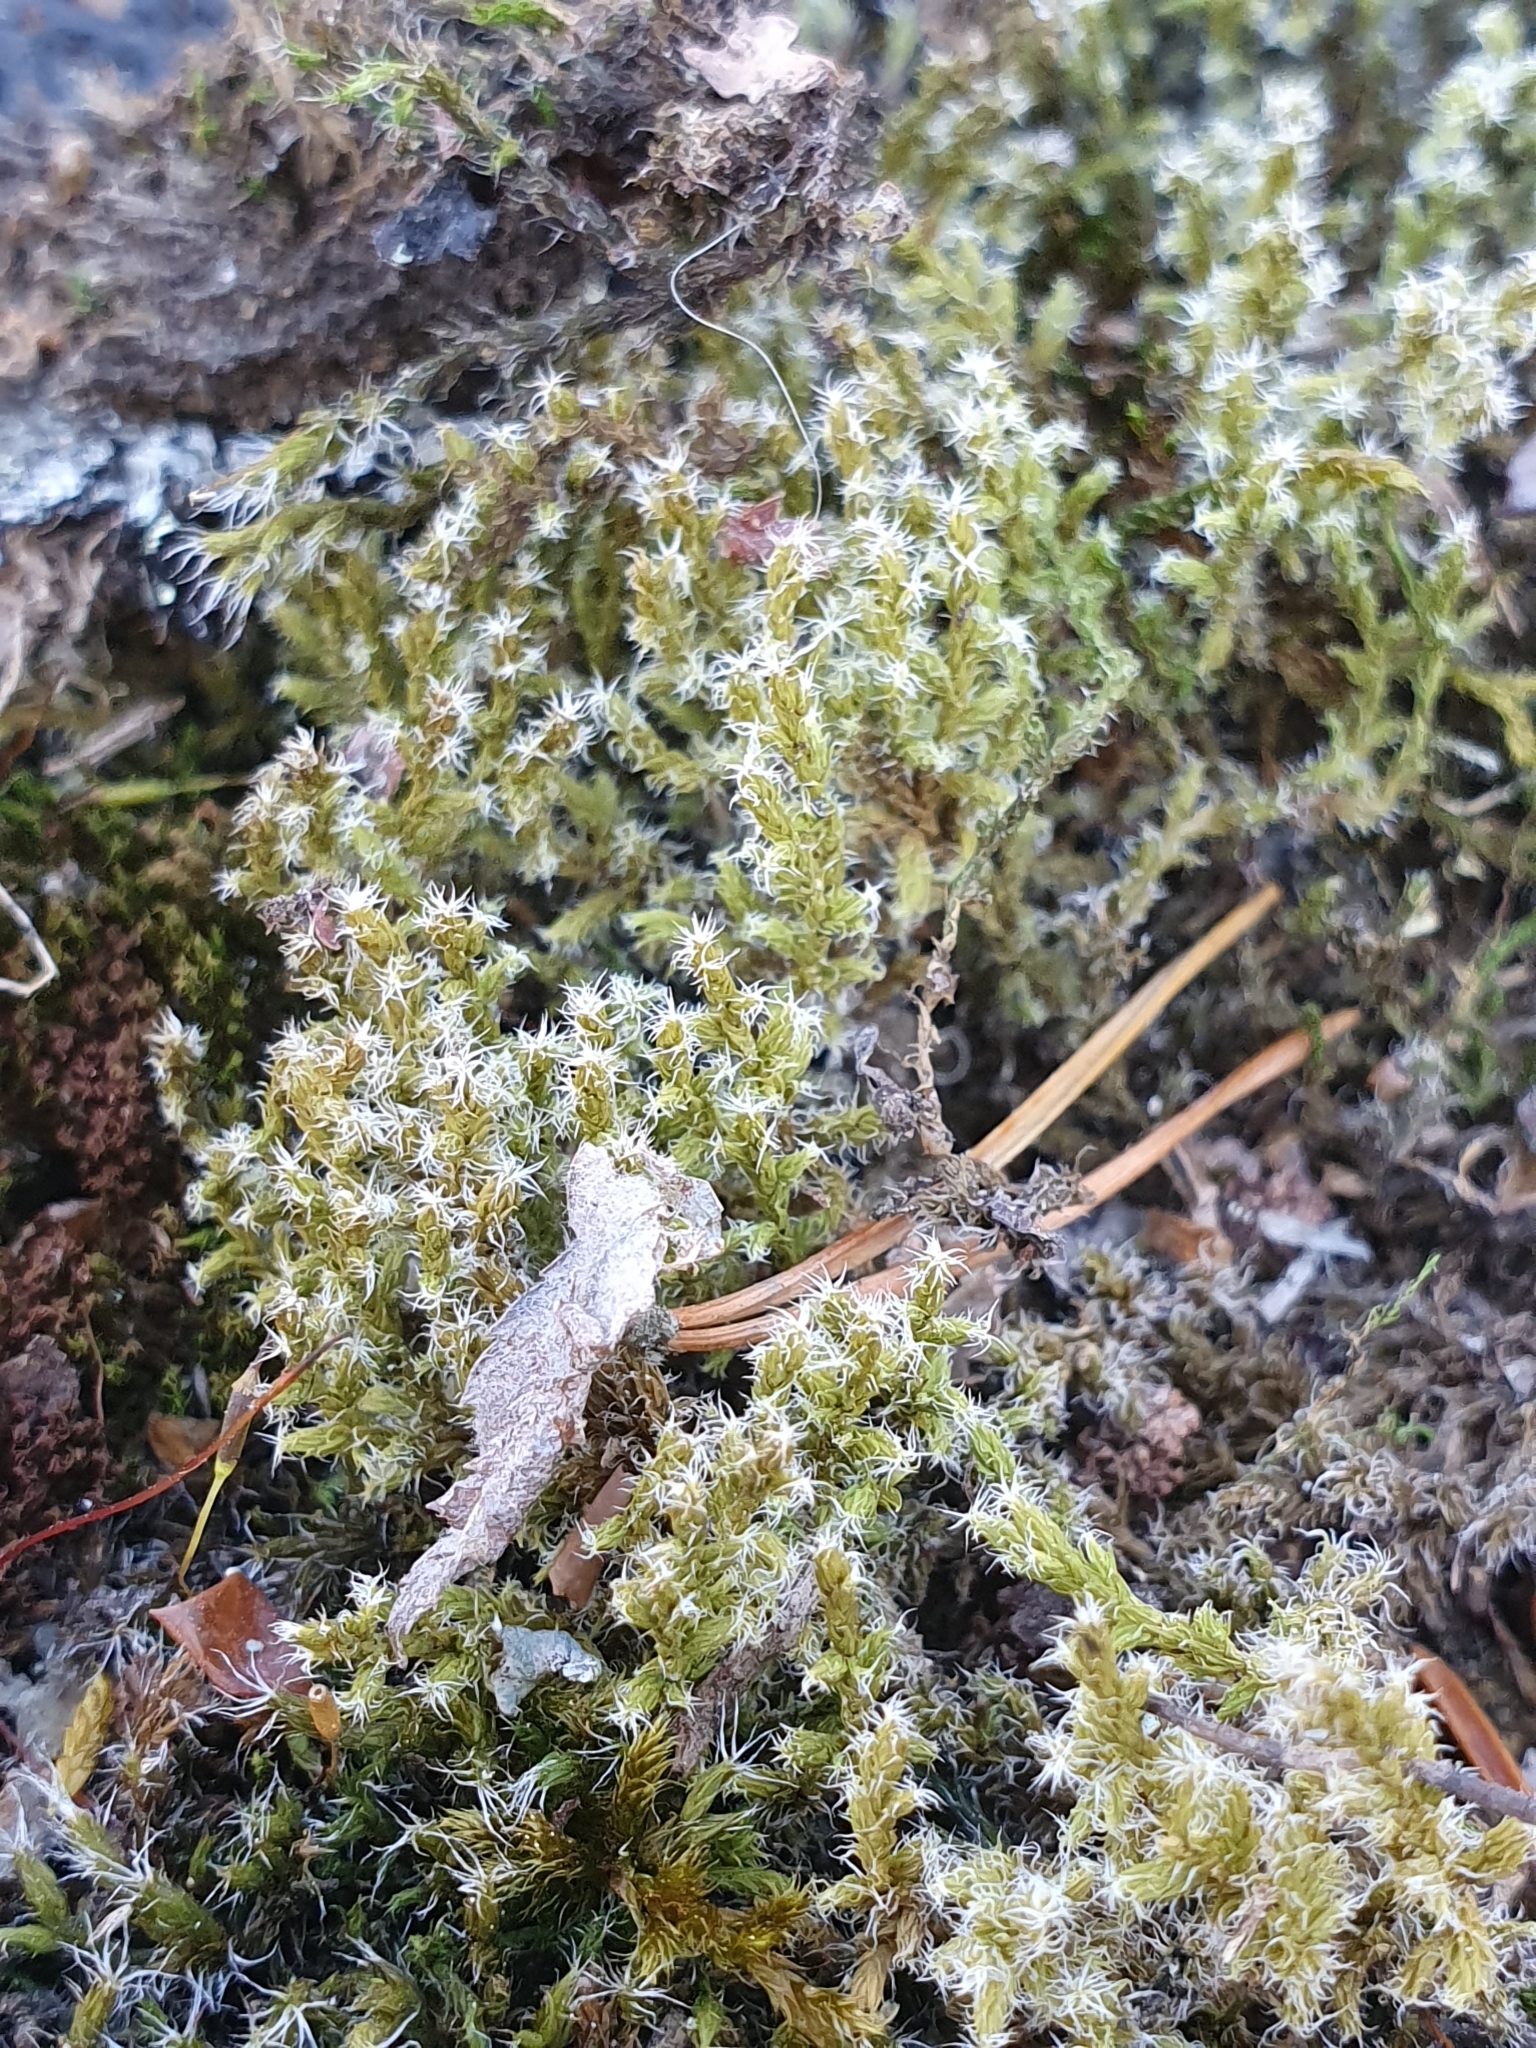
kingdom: Plantae
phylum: Bryophyta
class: Bryopsida
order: Grimmiales
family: Grimmiaceae
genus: Racomitrium
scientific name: Racomitrium lanuginosum
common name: Hoary rock moss
